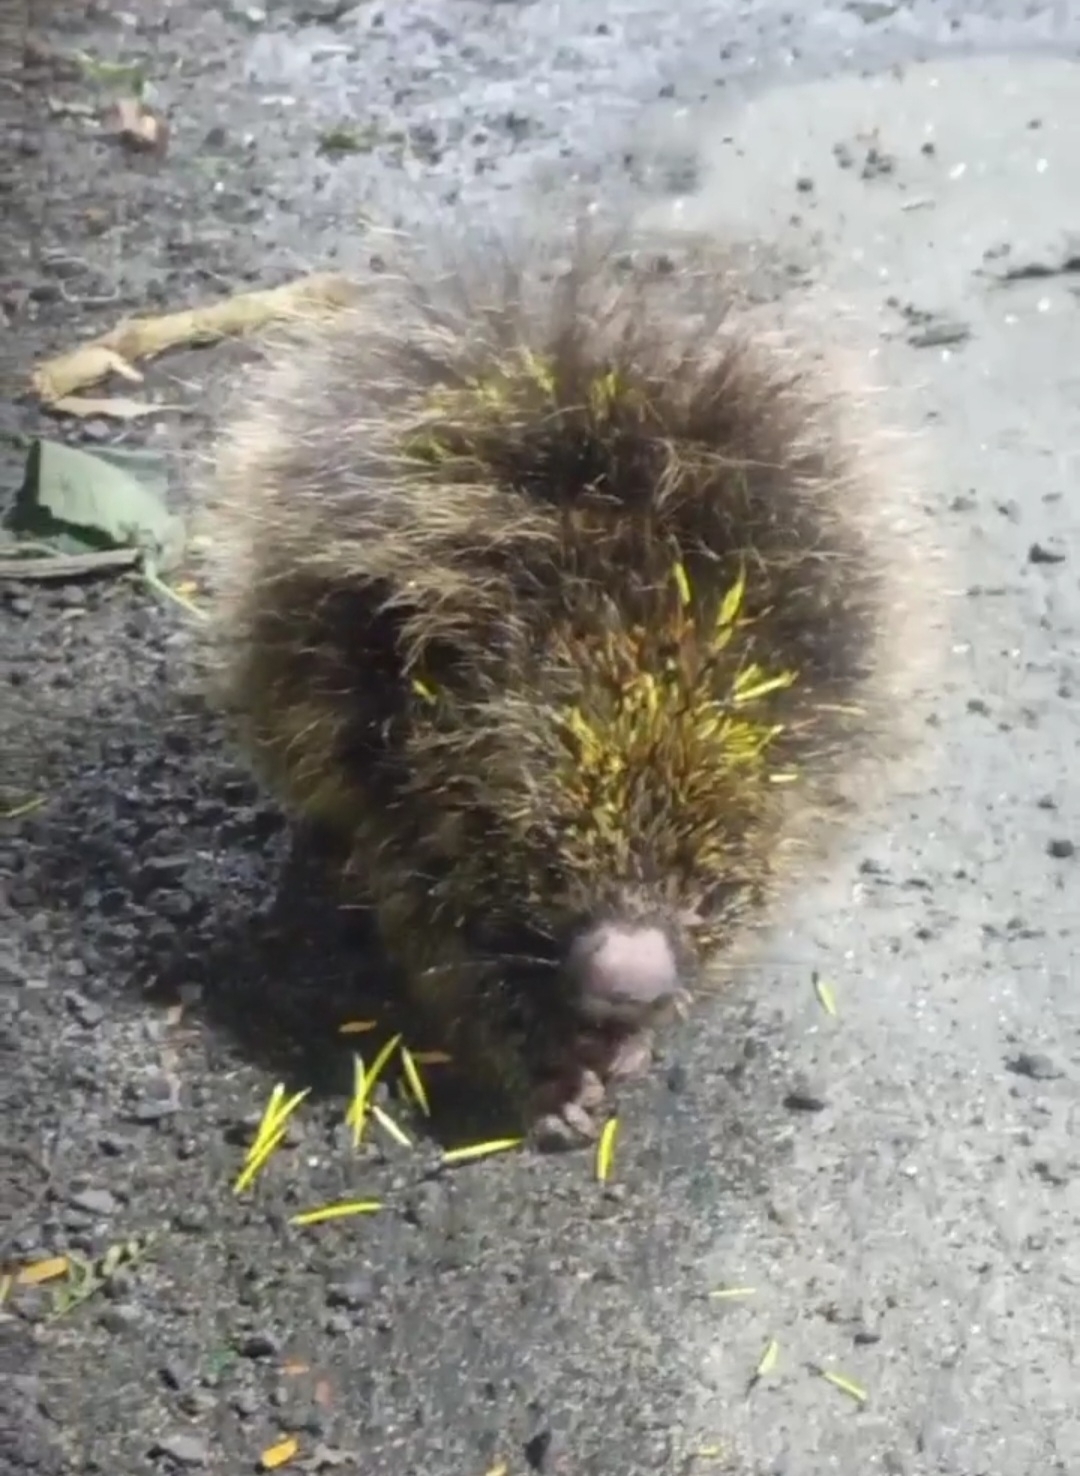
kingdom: Animalia
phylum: Chordata
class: Mammalia
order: Rodentia
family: Erethizontidae
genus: Sphiggurus
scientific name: Sphiggurus spinosus
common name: Paraguaian hairy dwarf porcupine
